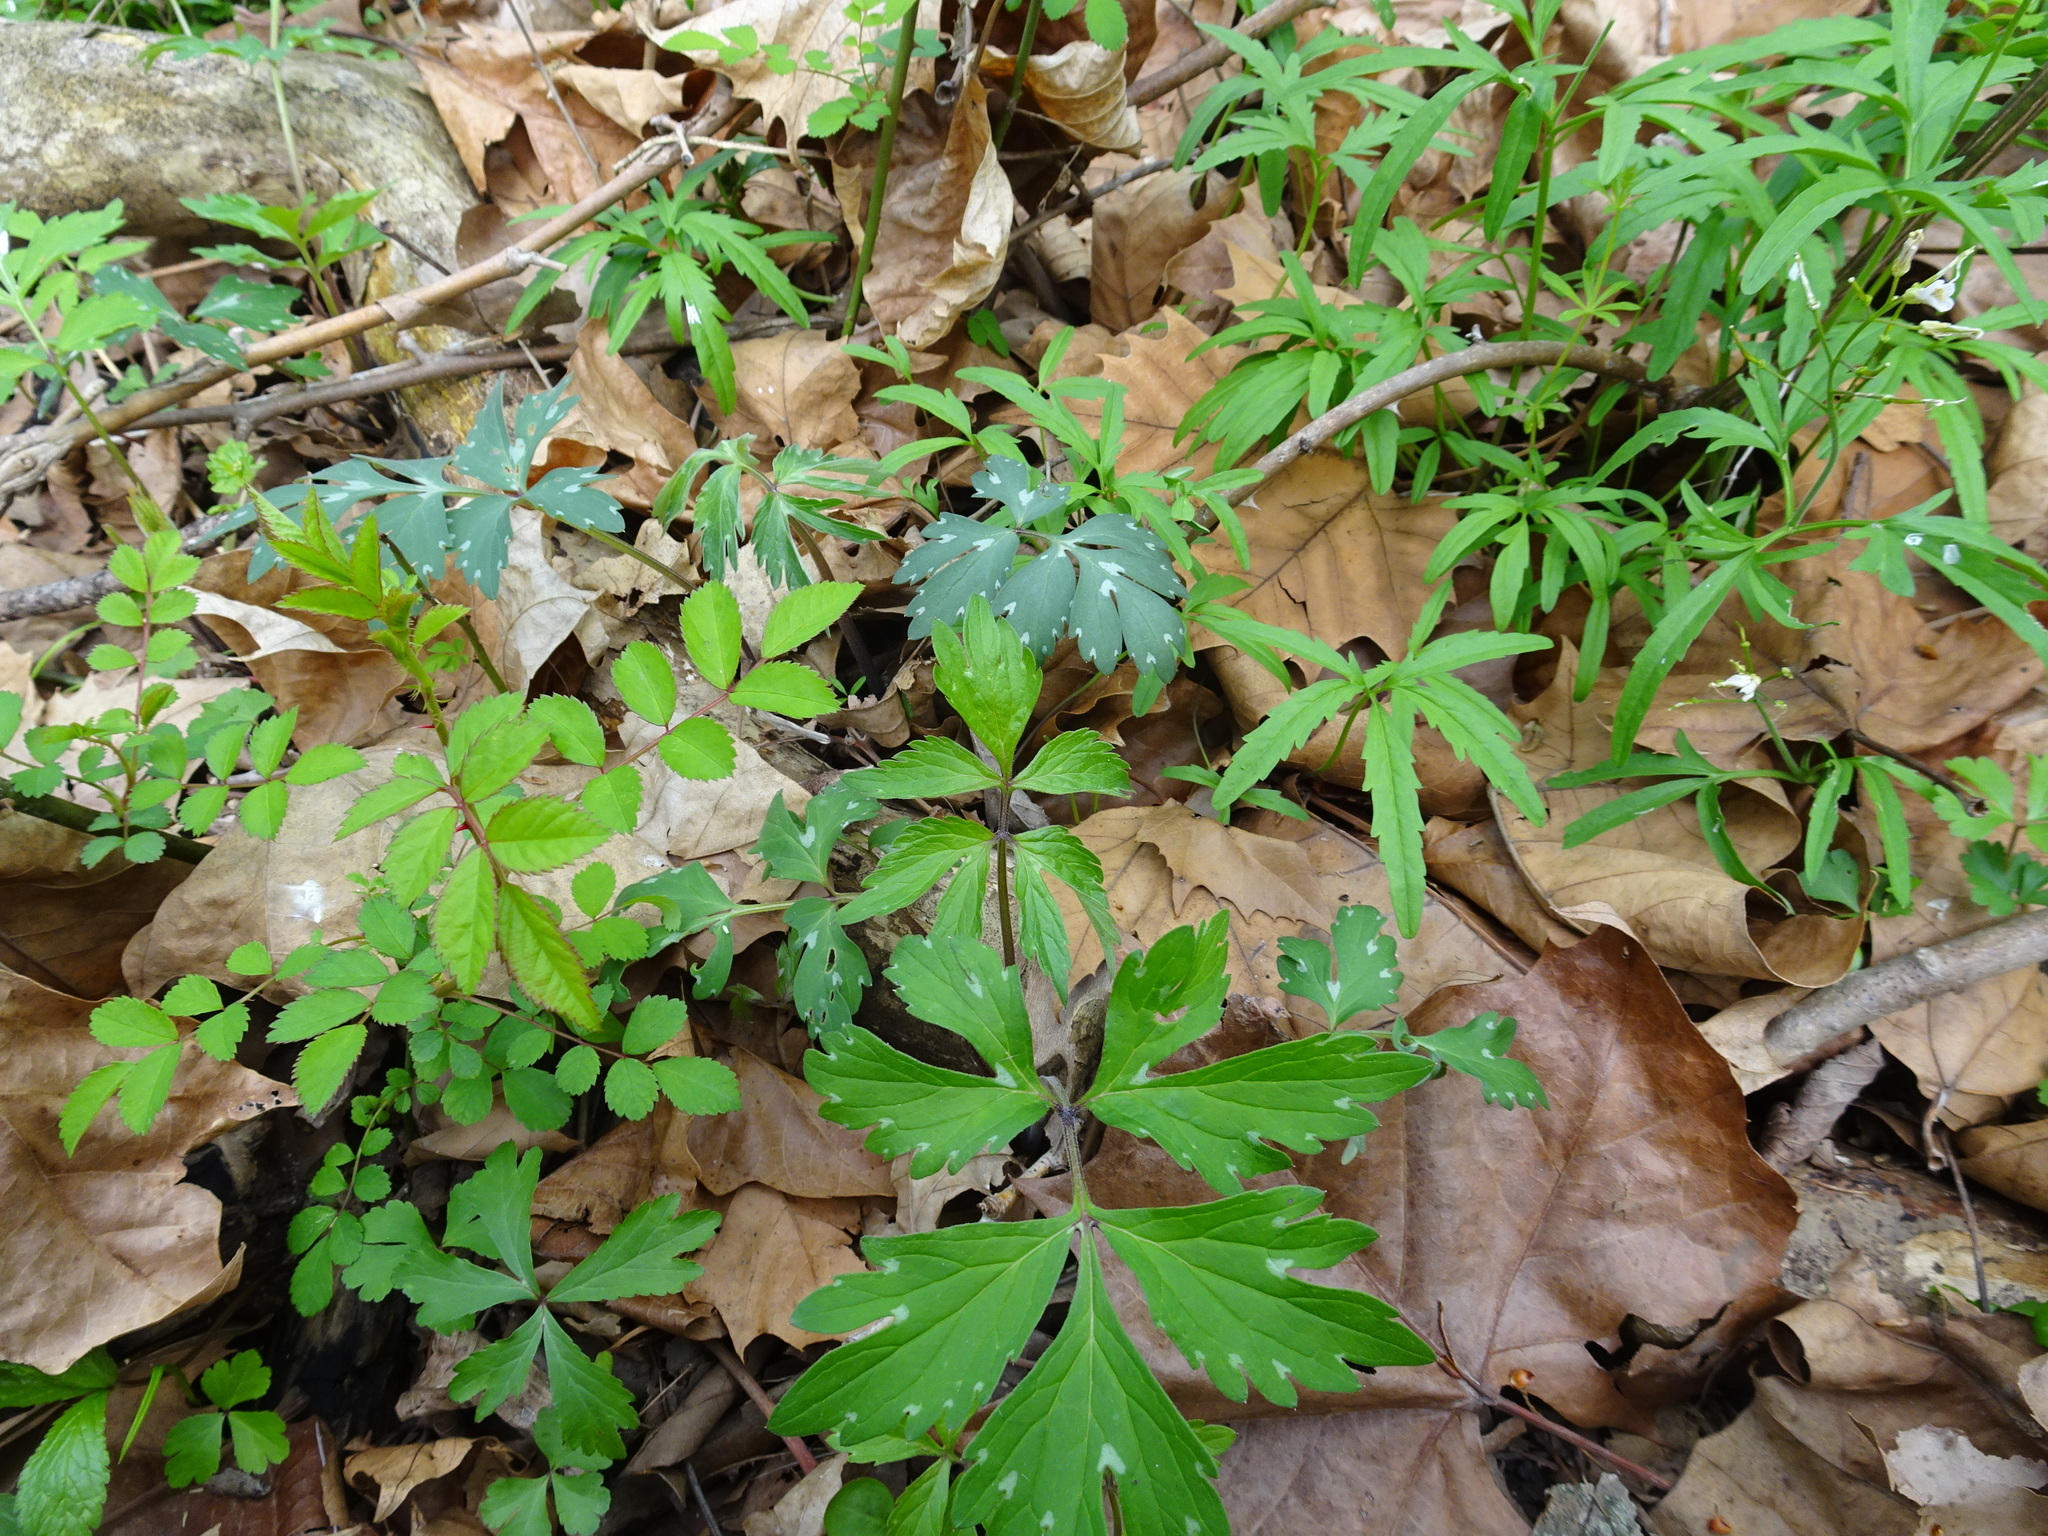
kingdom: Plantae
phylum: Tracheophyta
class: Magnoliopsida
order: Boraginales
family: Hydrophyllaceae
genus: Hydrophyllum
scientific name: Hydrophyllum virginianum
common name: Virginia waterleaf
